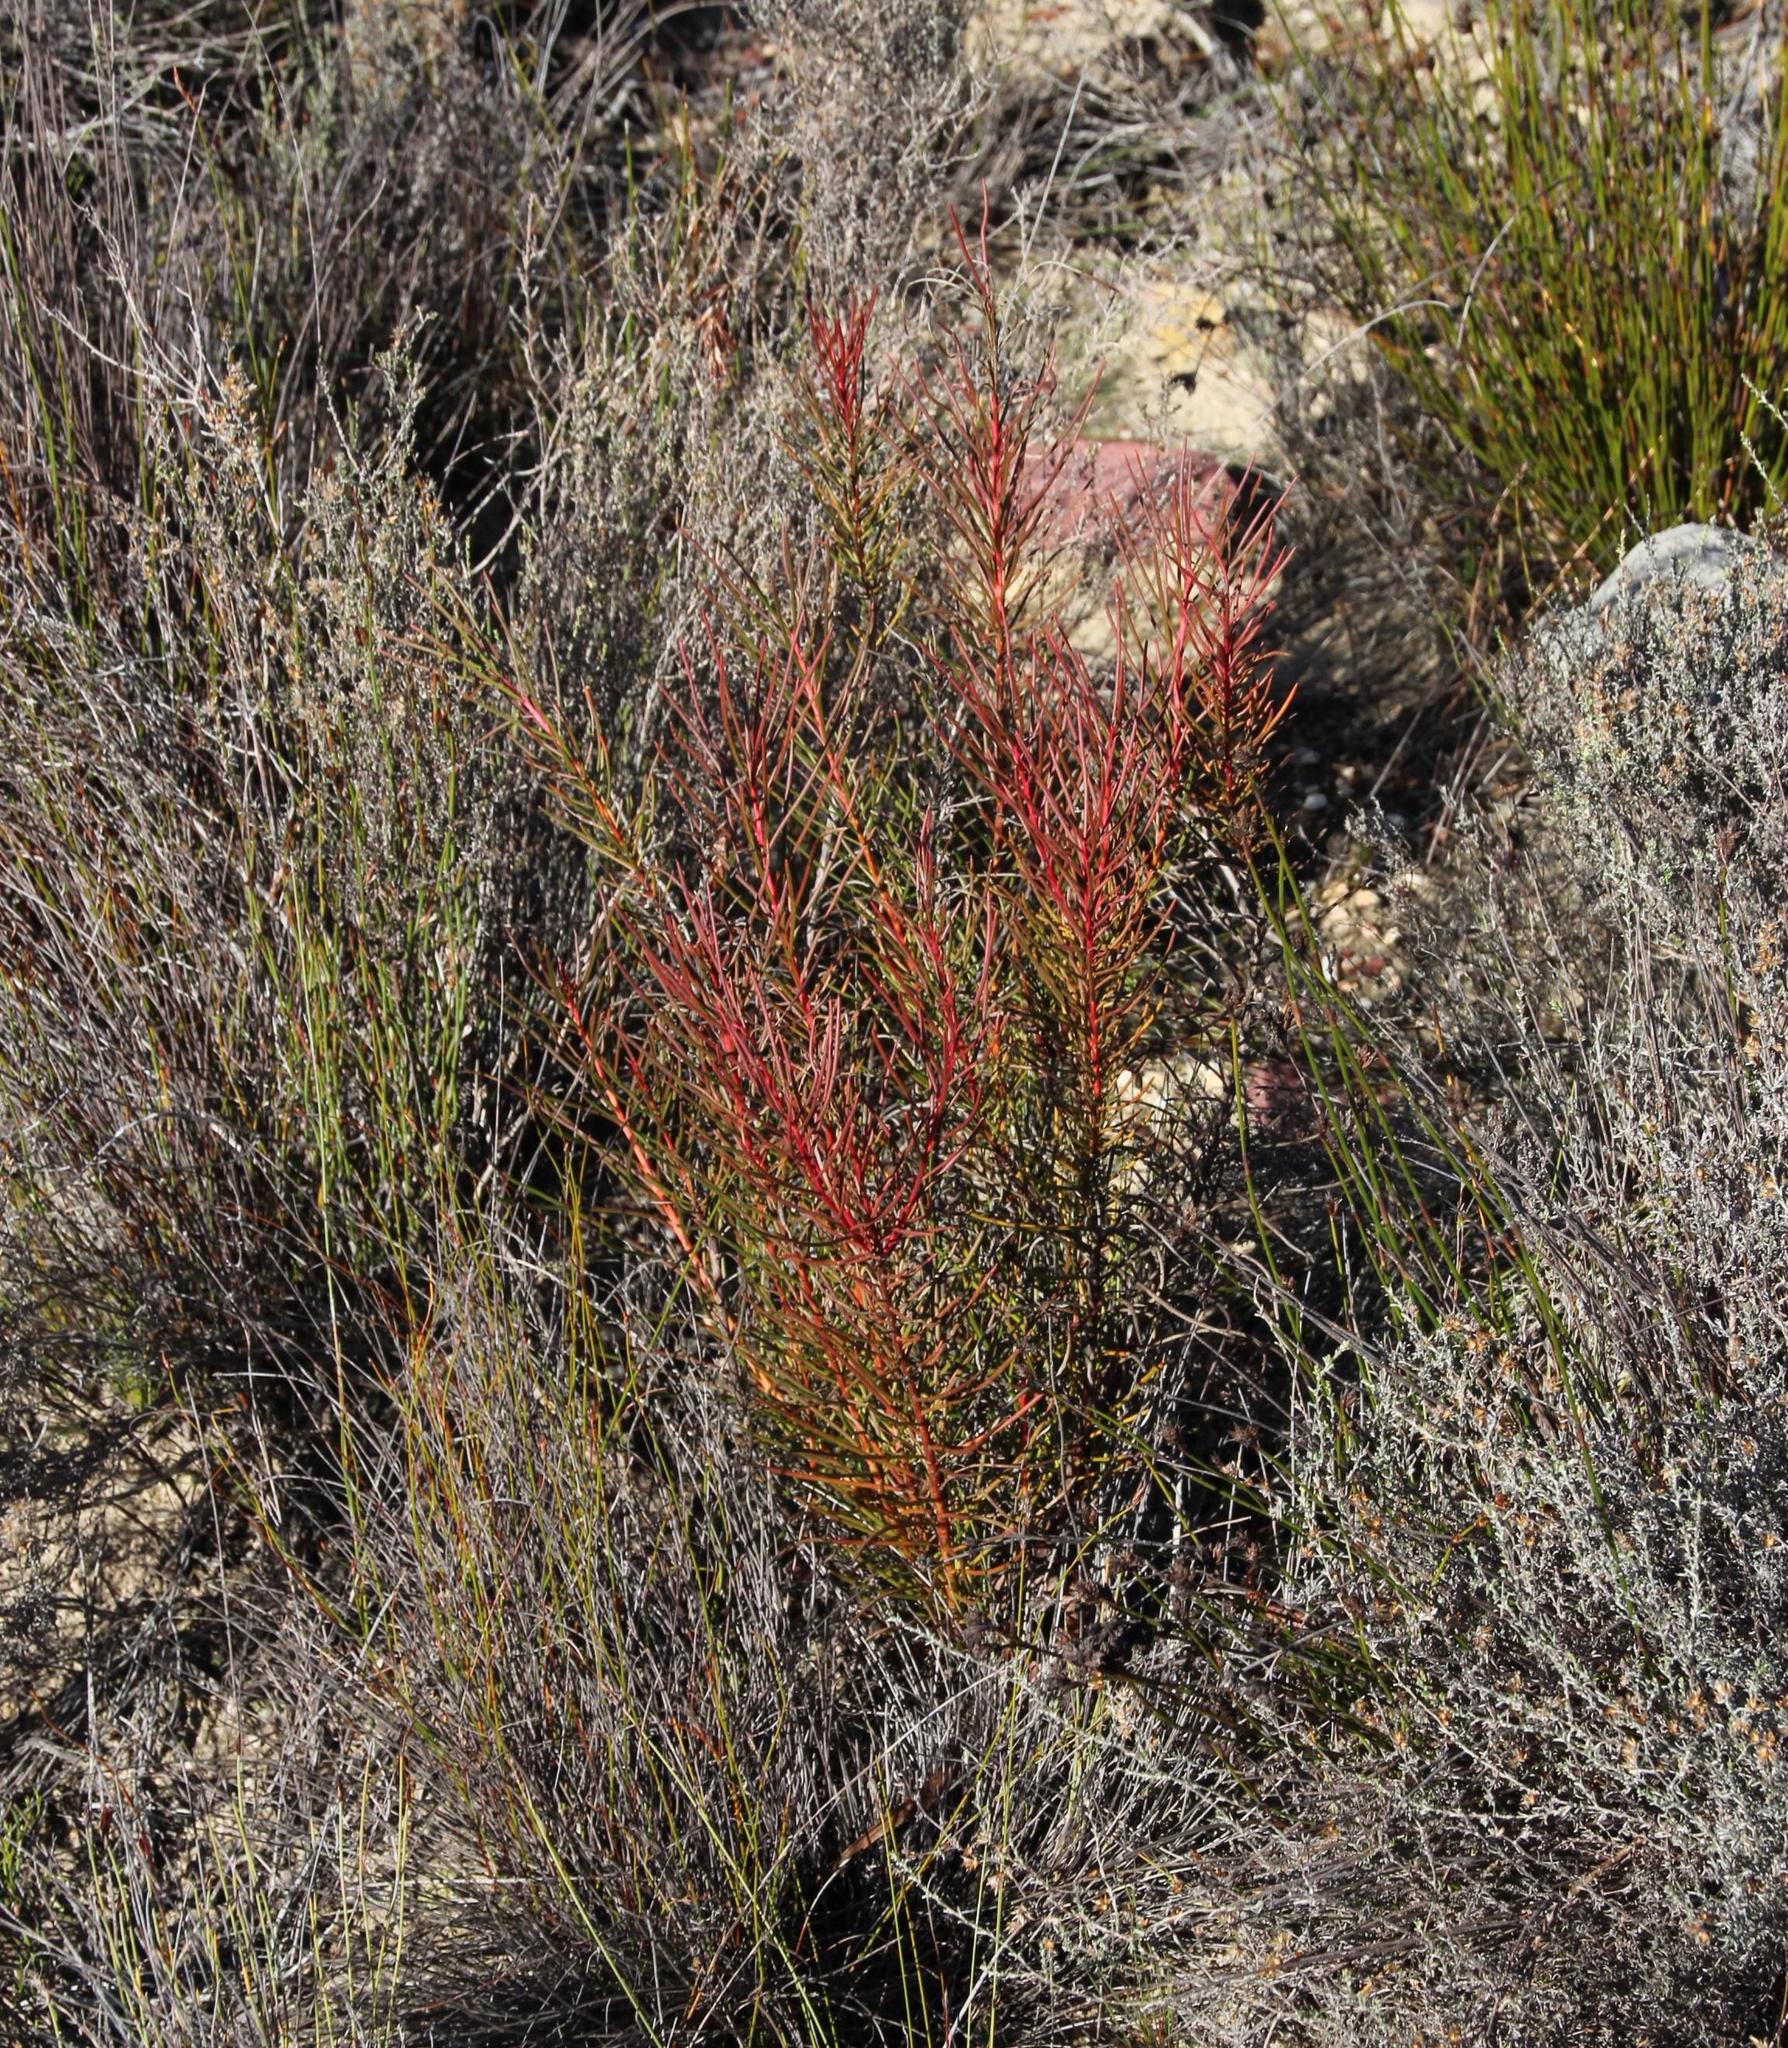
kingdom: Plantae
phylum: Tracheophyta
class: Magnoliopsida
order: Proteales
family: Proteaceae
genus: Protea
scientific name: Protea subulifolia
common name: Awl-leaf sugarbush
